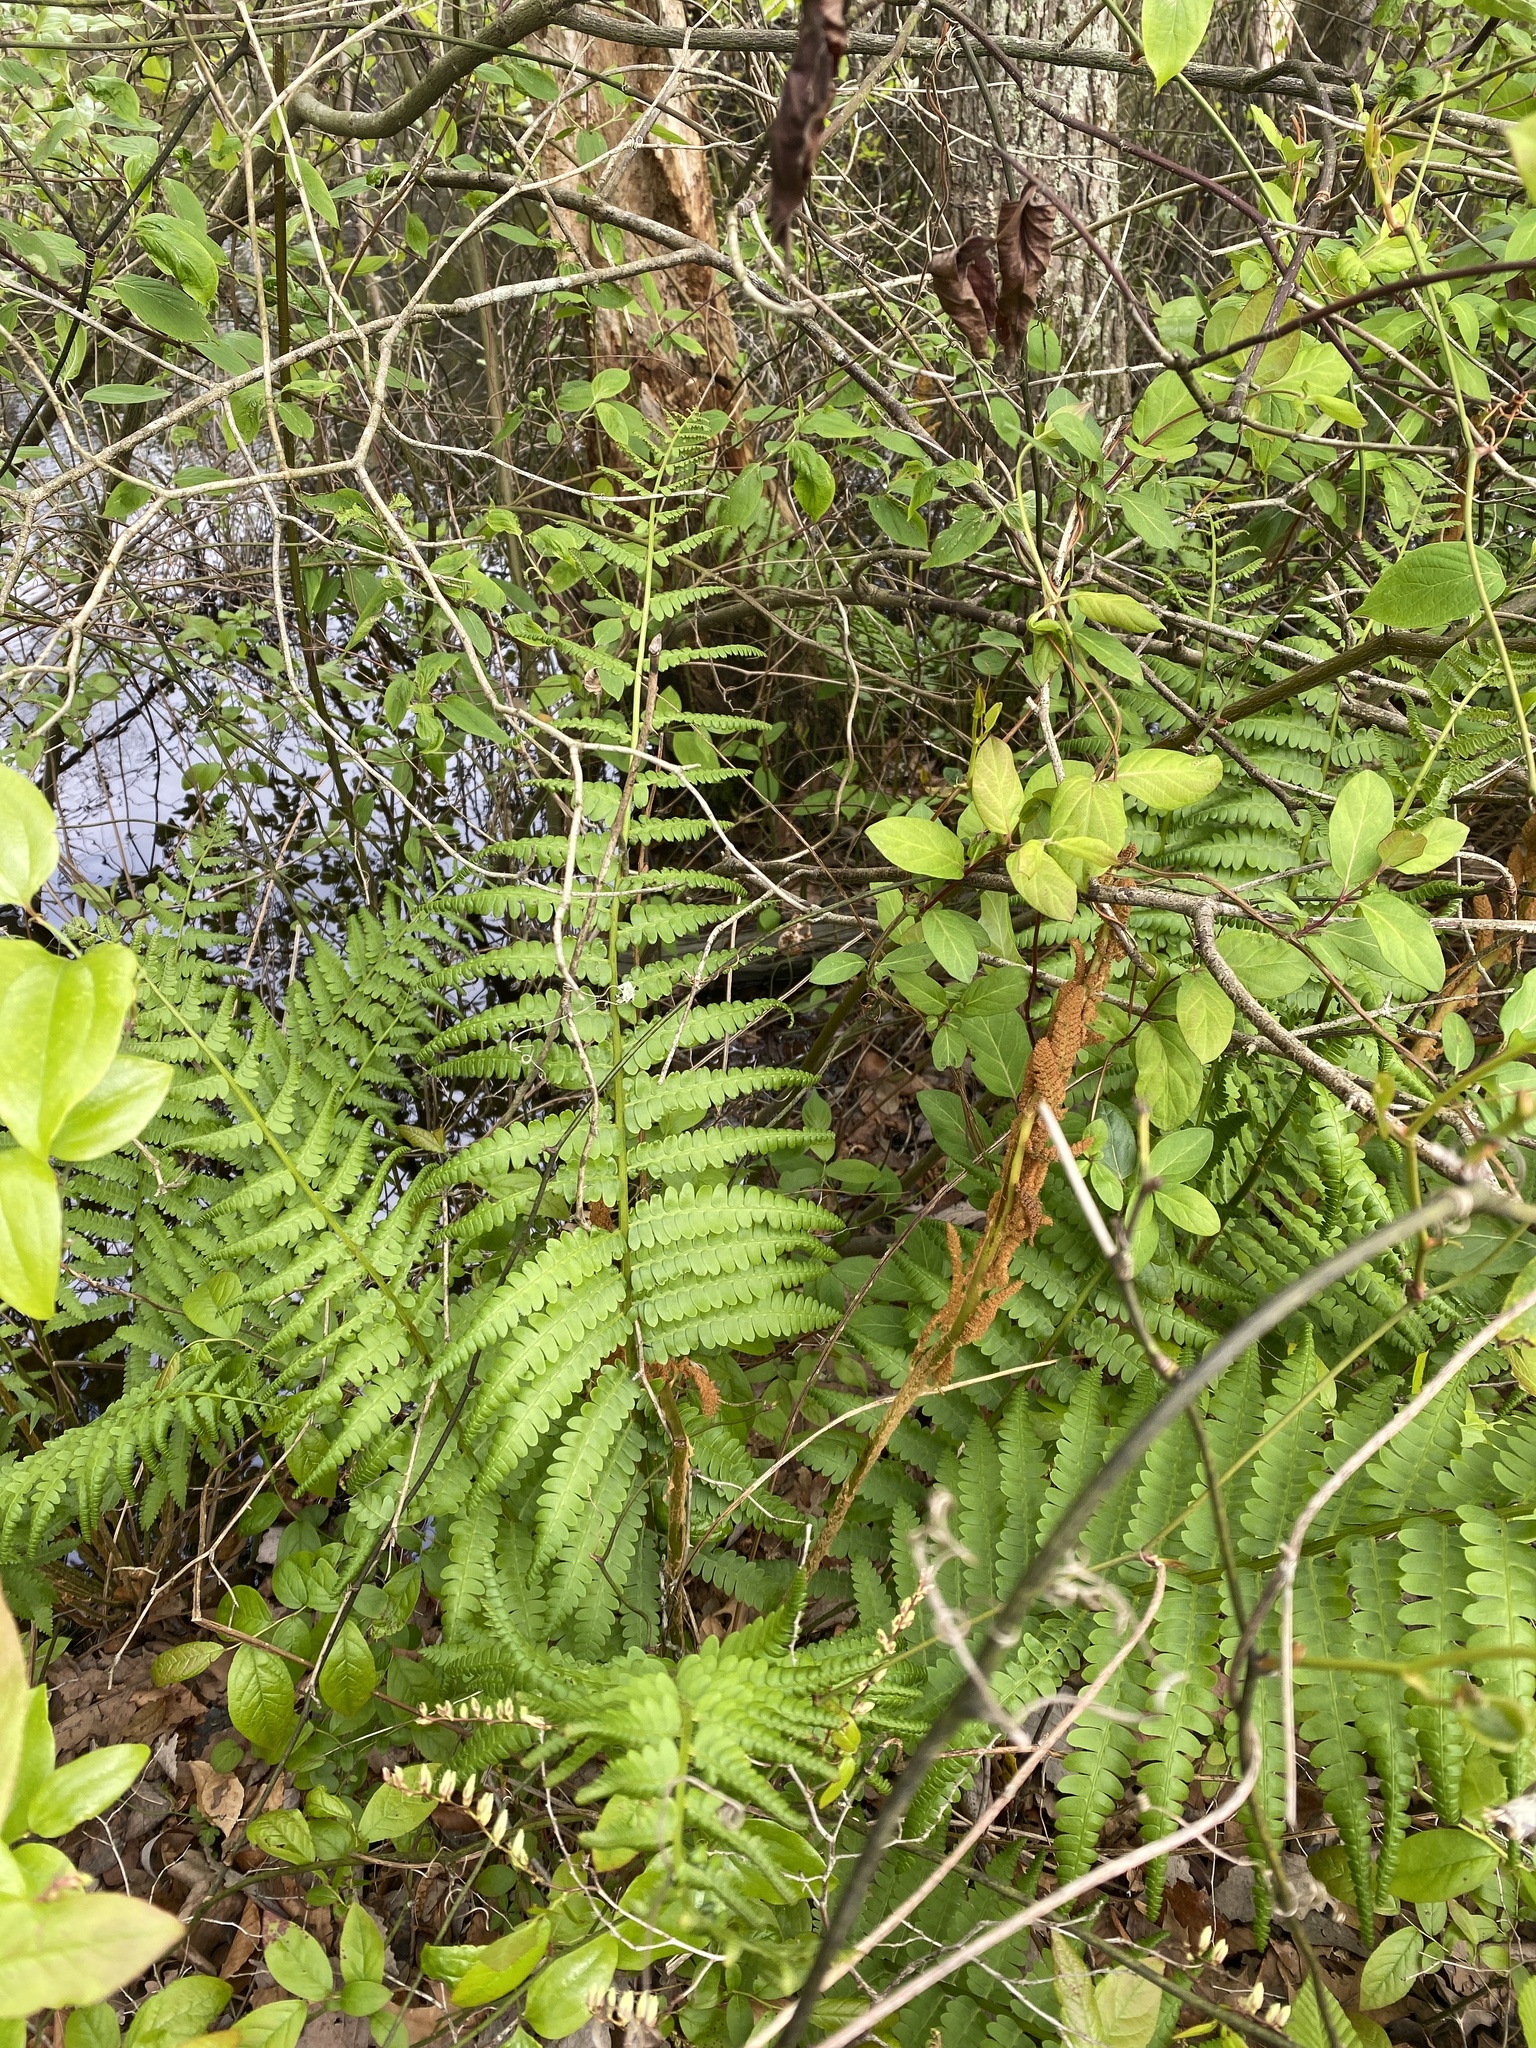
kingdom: Plantae
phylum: Tracheophyta
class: Polypodiopsida
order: Osmundales
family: Osmundaceae
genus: Osmundastrum
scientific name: Osmundastrum cinnamomeum
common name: Cinnamon fern
